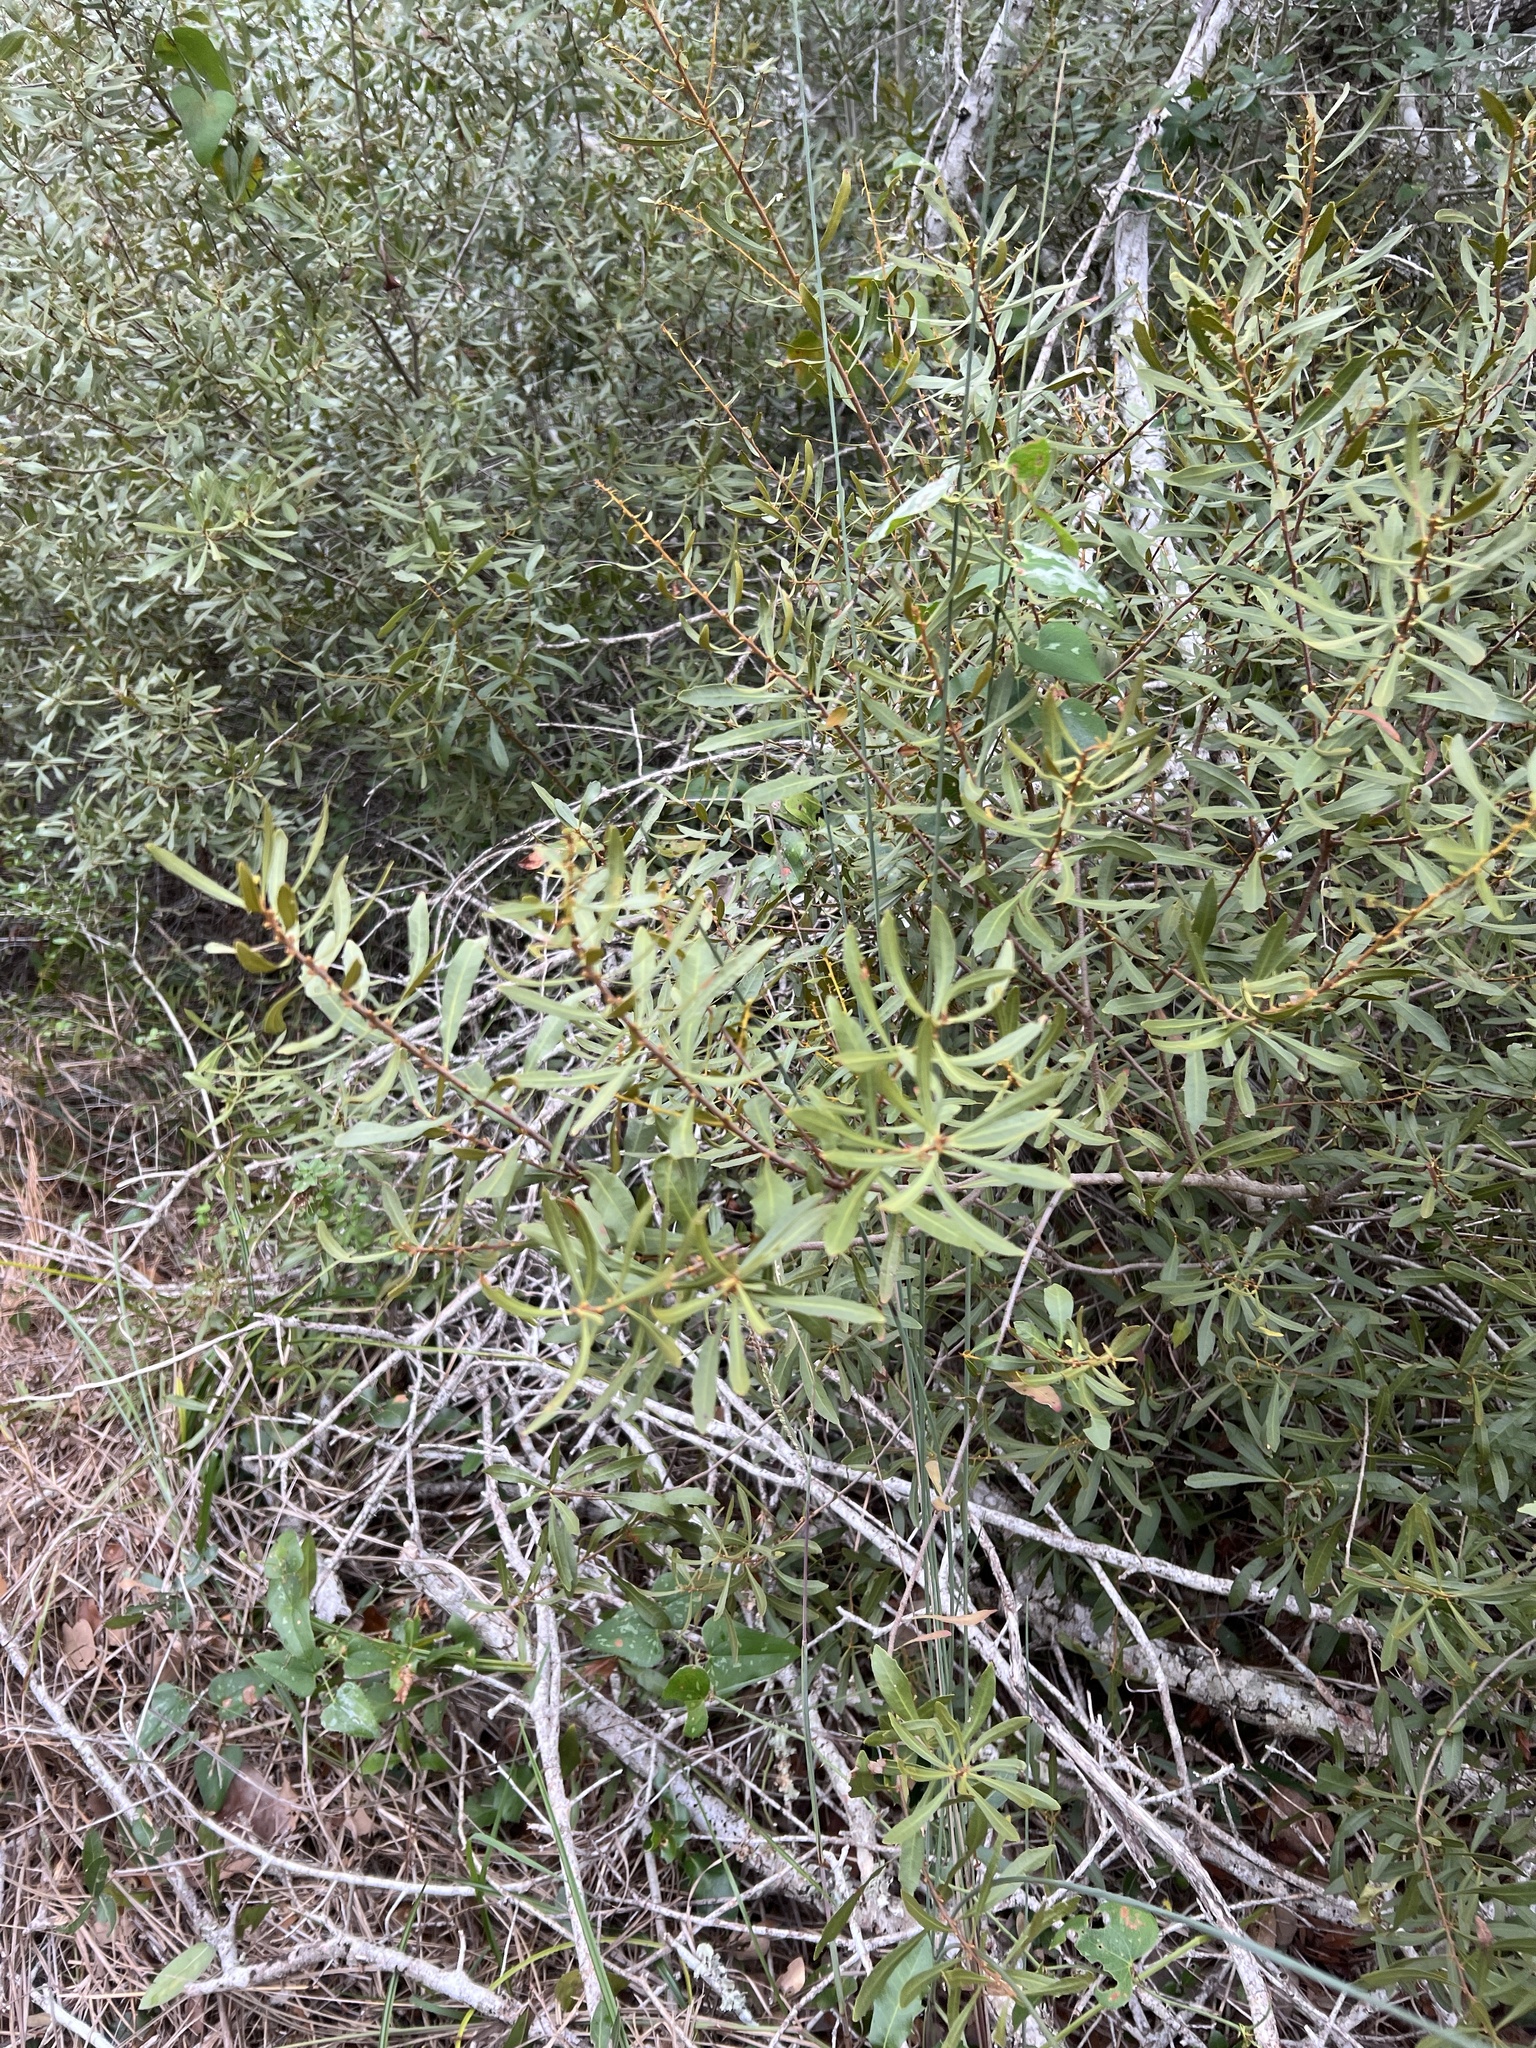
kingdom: Plantae
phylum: Tracheophyta
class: Magnoliopsida
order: Fagales
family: Myricaceae
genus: Morella
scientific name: Morella cerifera
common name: Wax myrtle
